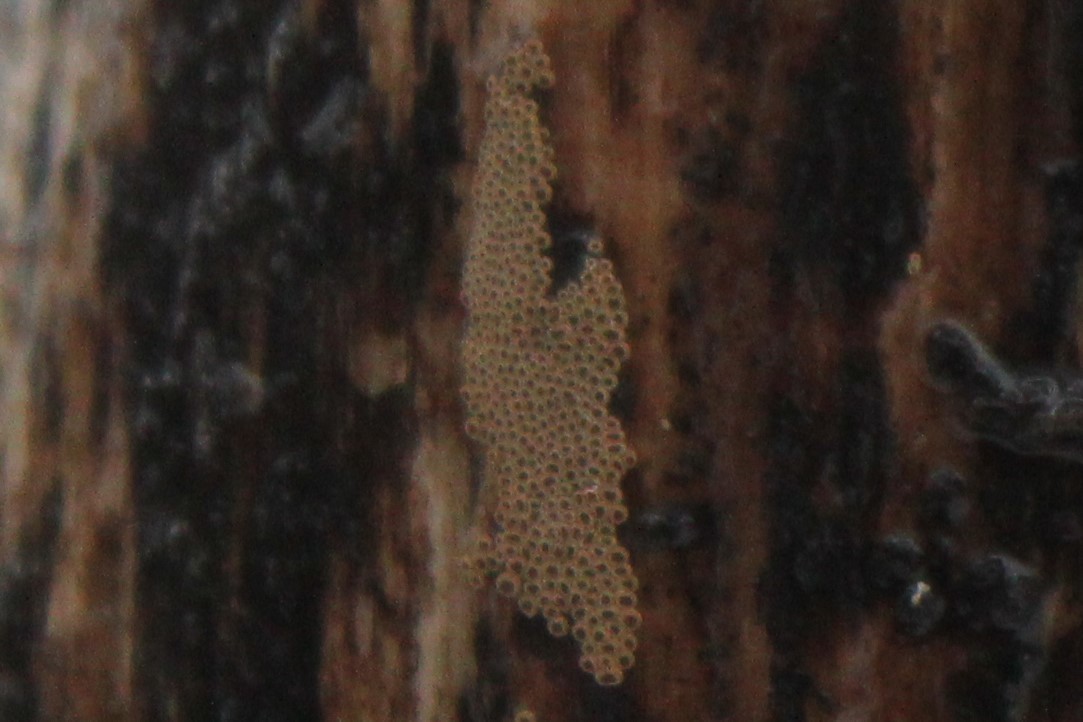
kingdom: Fungi
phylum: Basidiomycota
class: Agaricomycetes
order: Agaricales
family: Niaceae
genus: Merismodes
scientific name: Merismodes anomala
